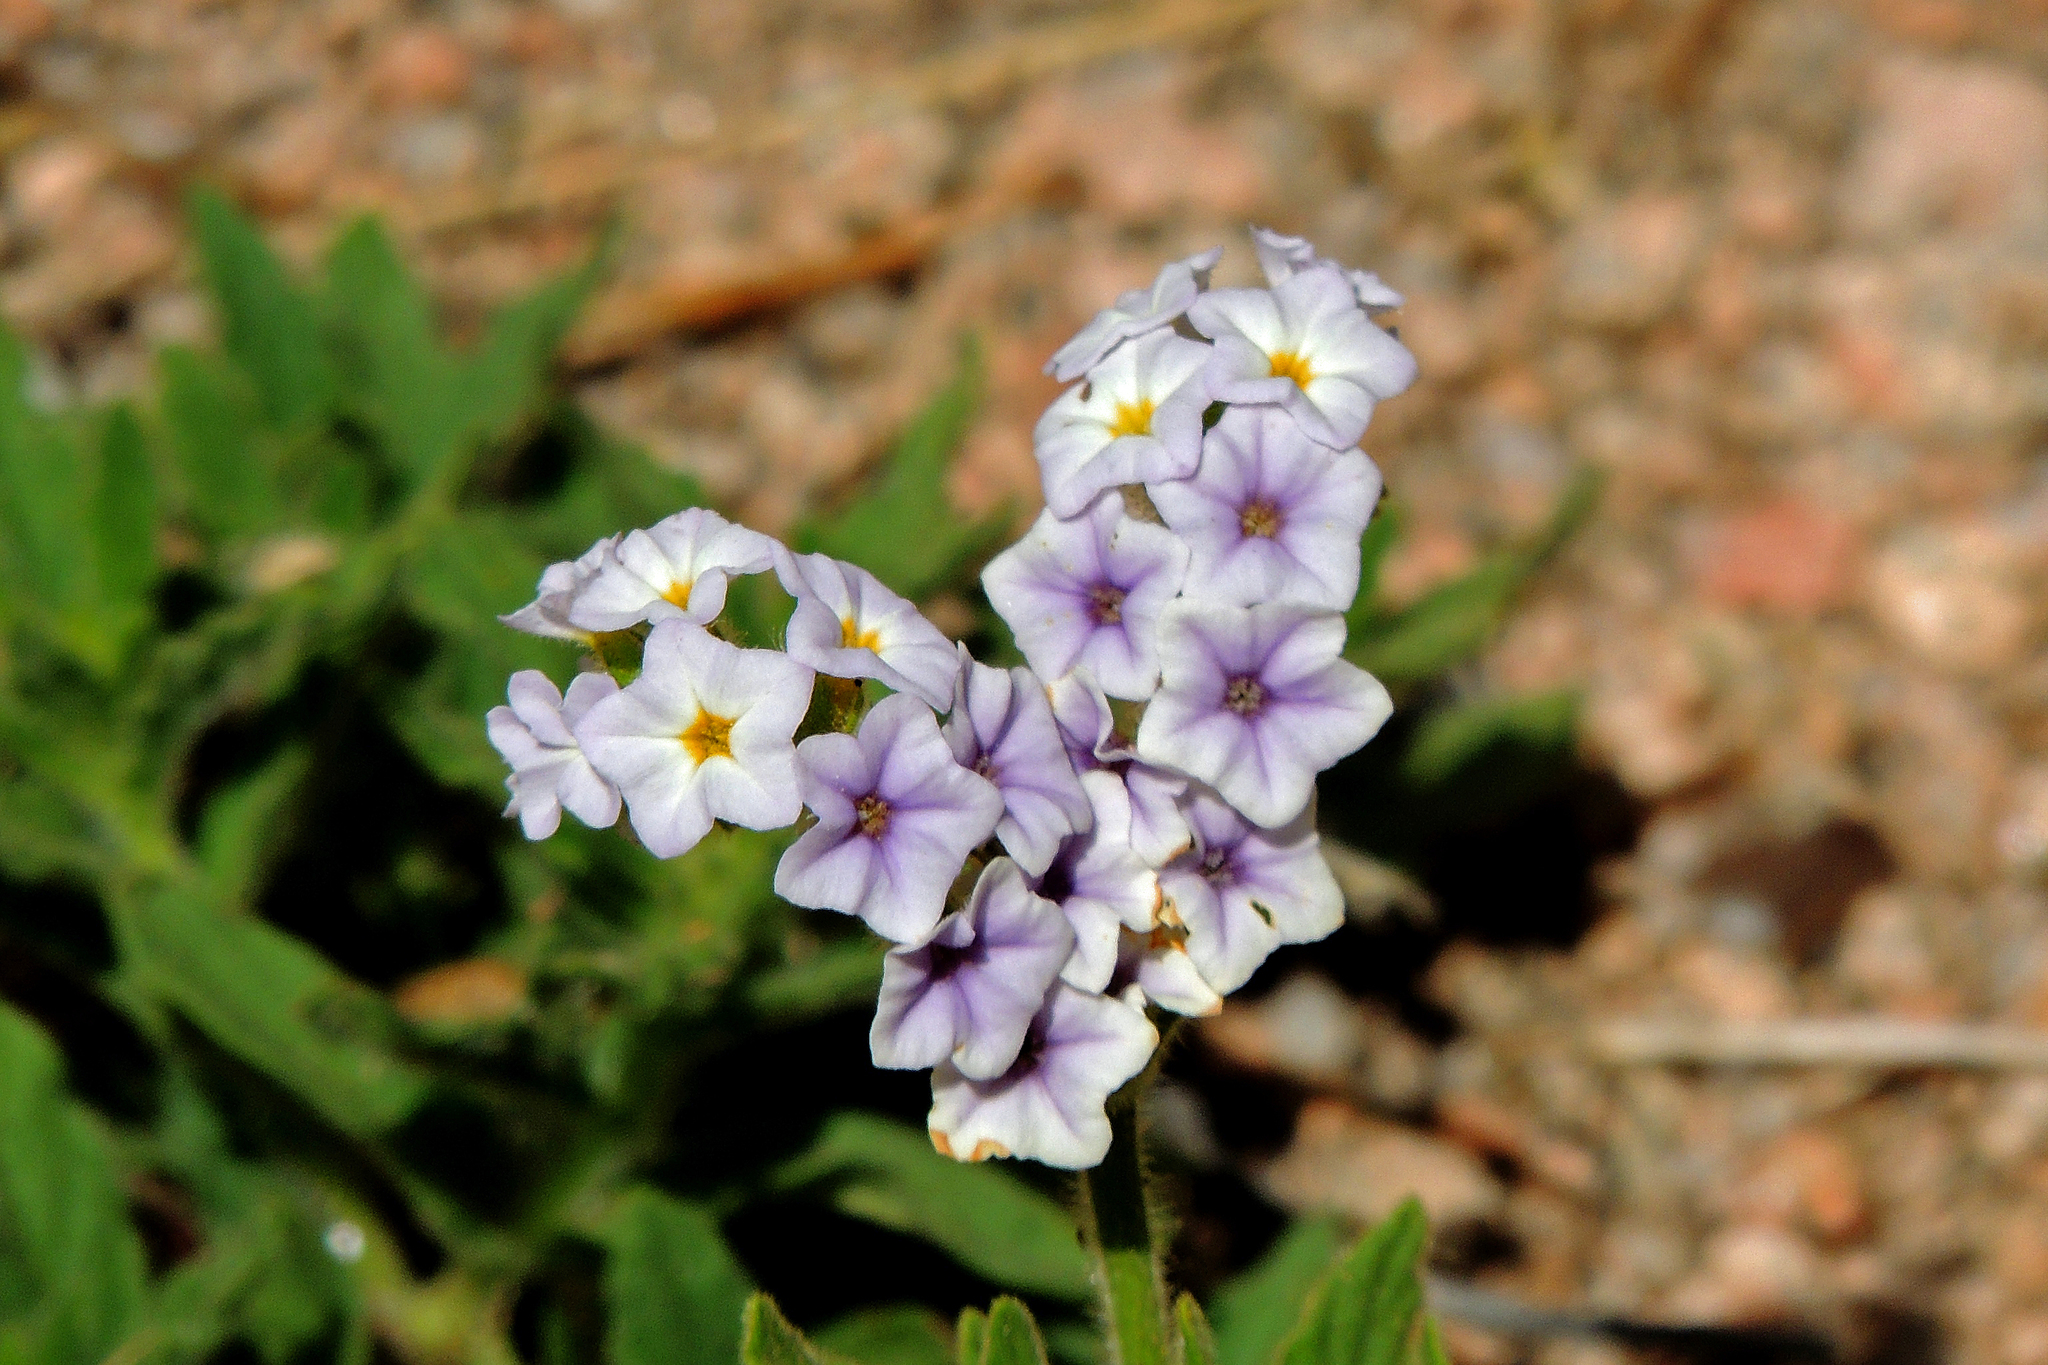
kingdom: Plantae
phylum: Tracheophyta
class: Magnoliopsida
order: Boraginales
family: Heliotropiaceae
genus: Heliotropium
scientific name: Heliotropium amplexicaule
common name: Clasping heliotrope
